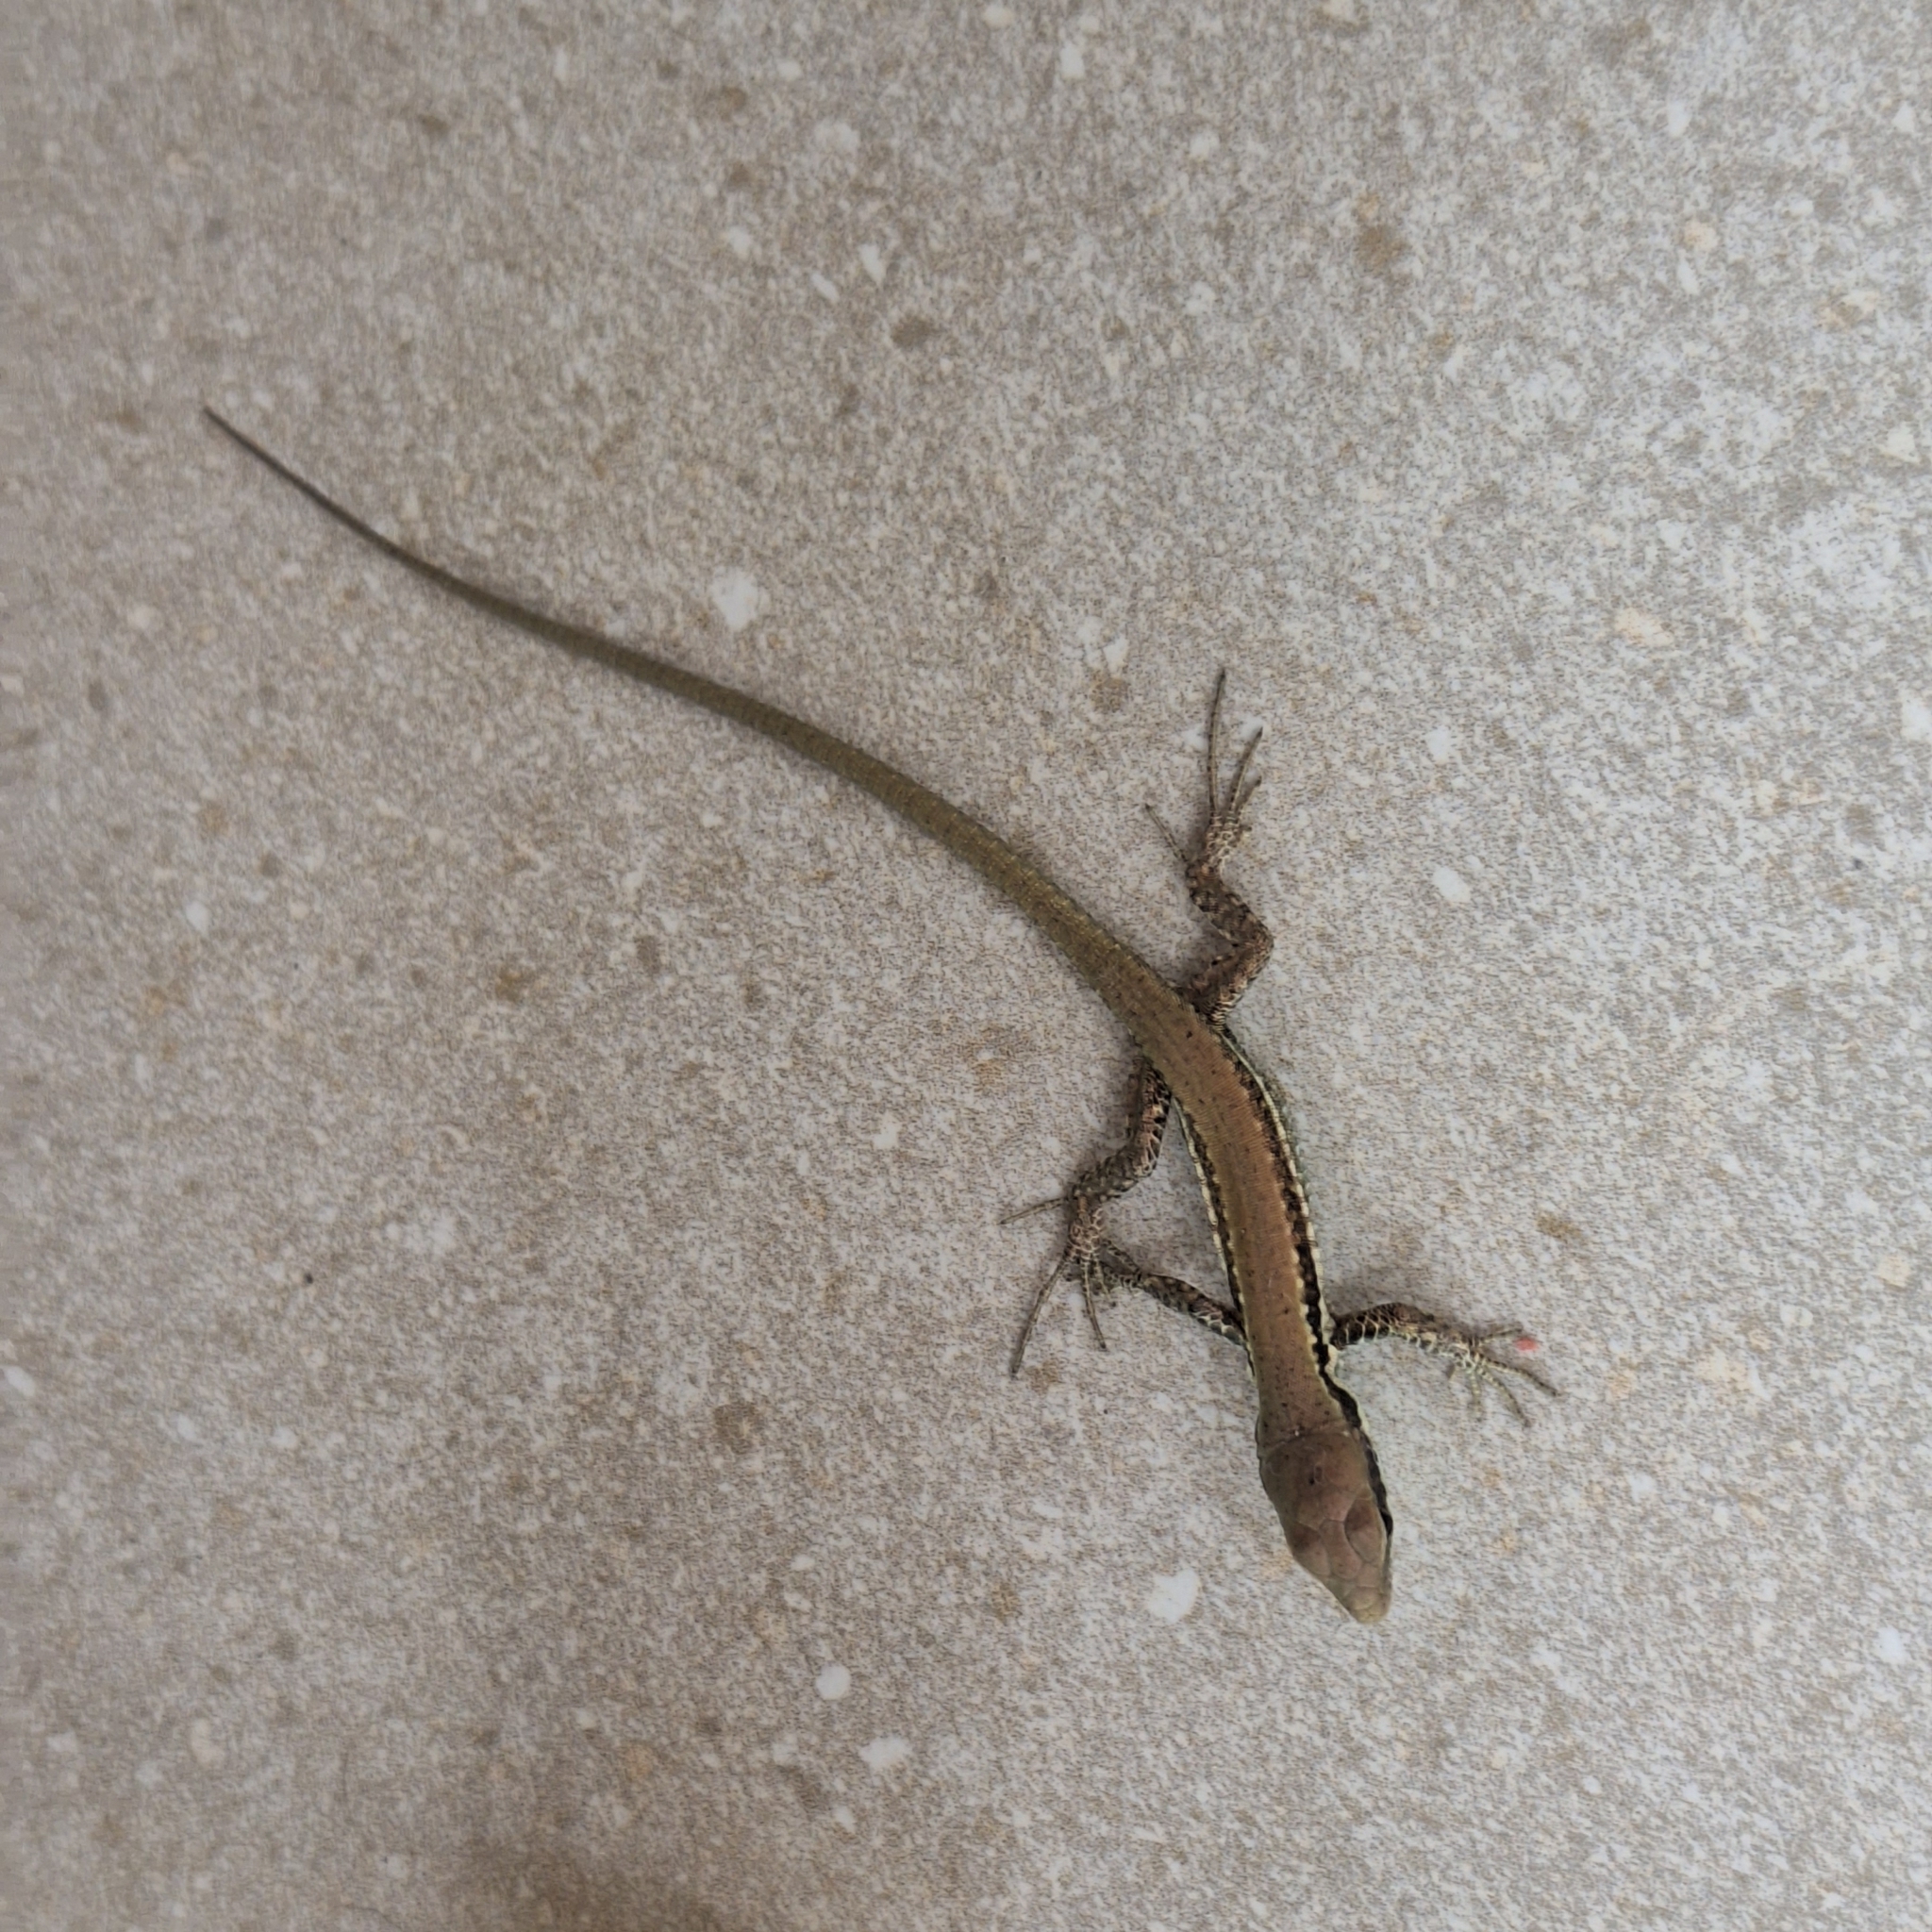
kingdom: Animalia
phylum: Chordata
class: Squamata
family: Lacertidae
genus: Phoenicolacerta
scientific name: Phoenicolacerta laevis
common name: Lebanon lizard
